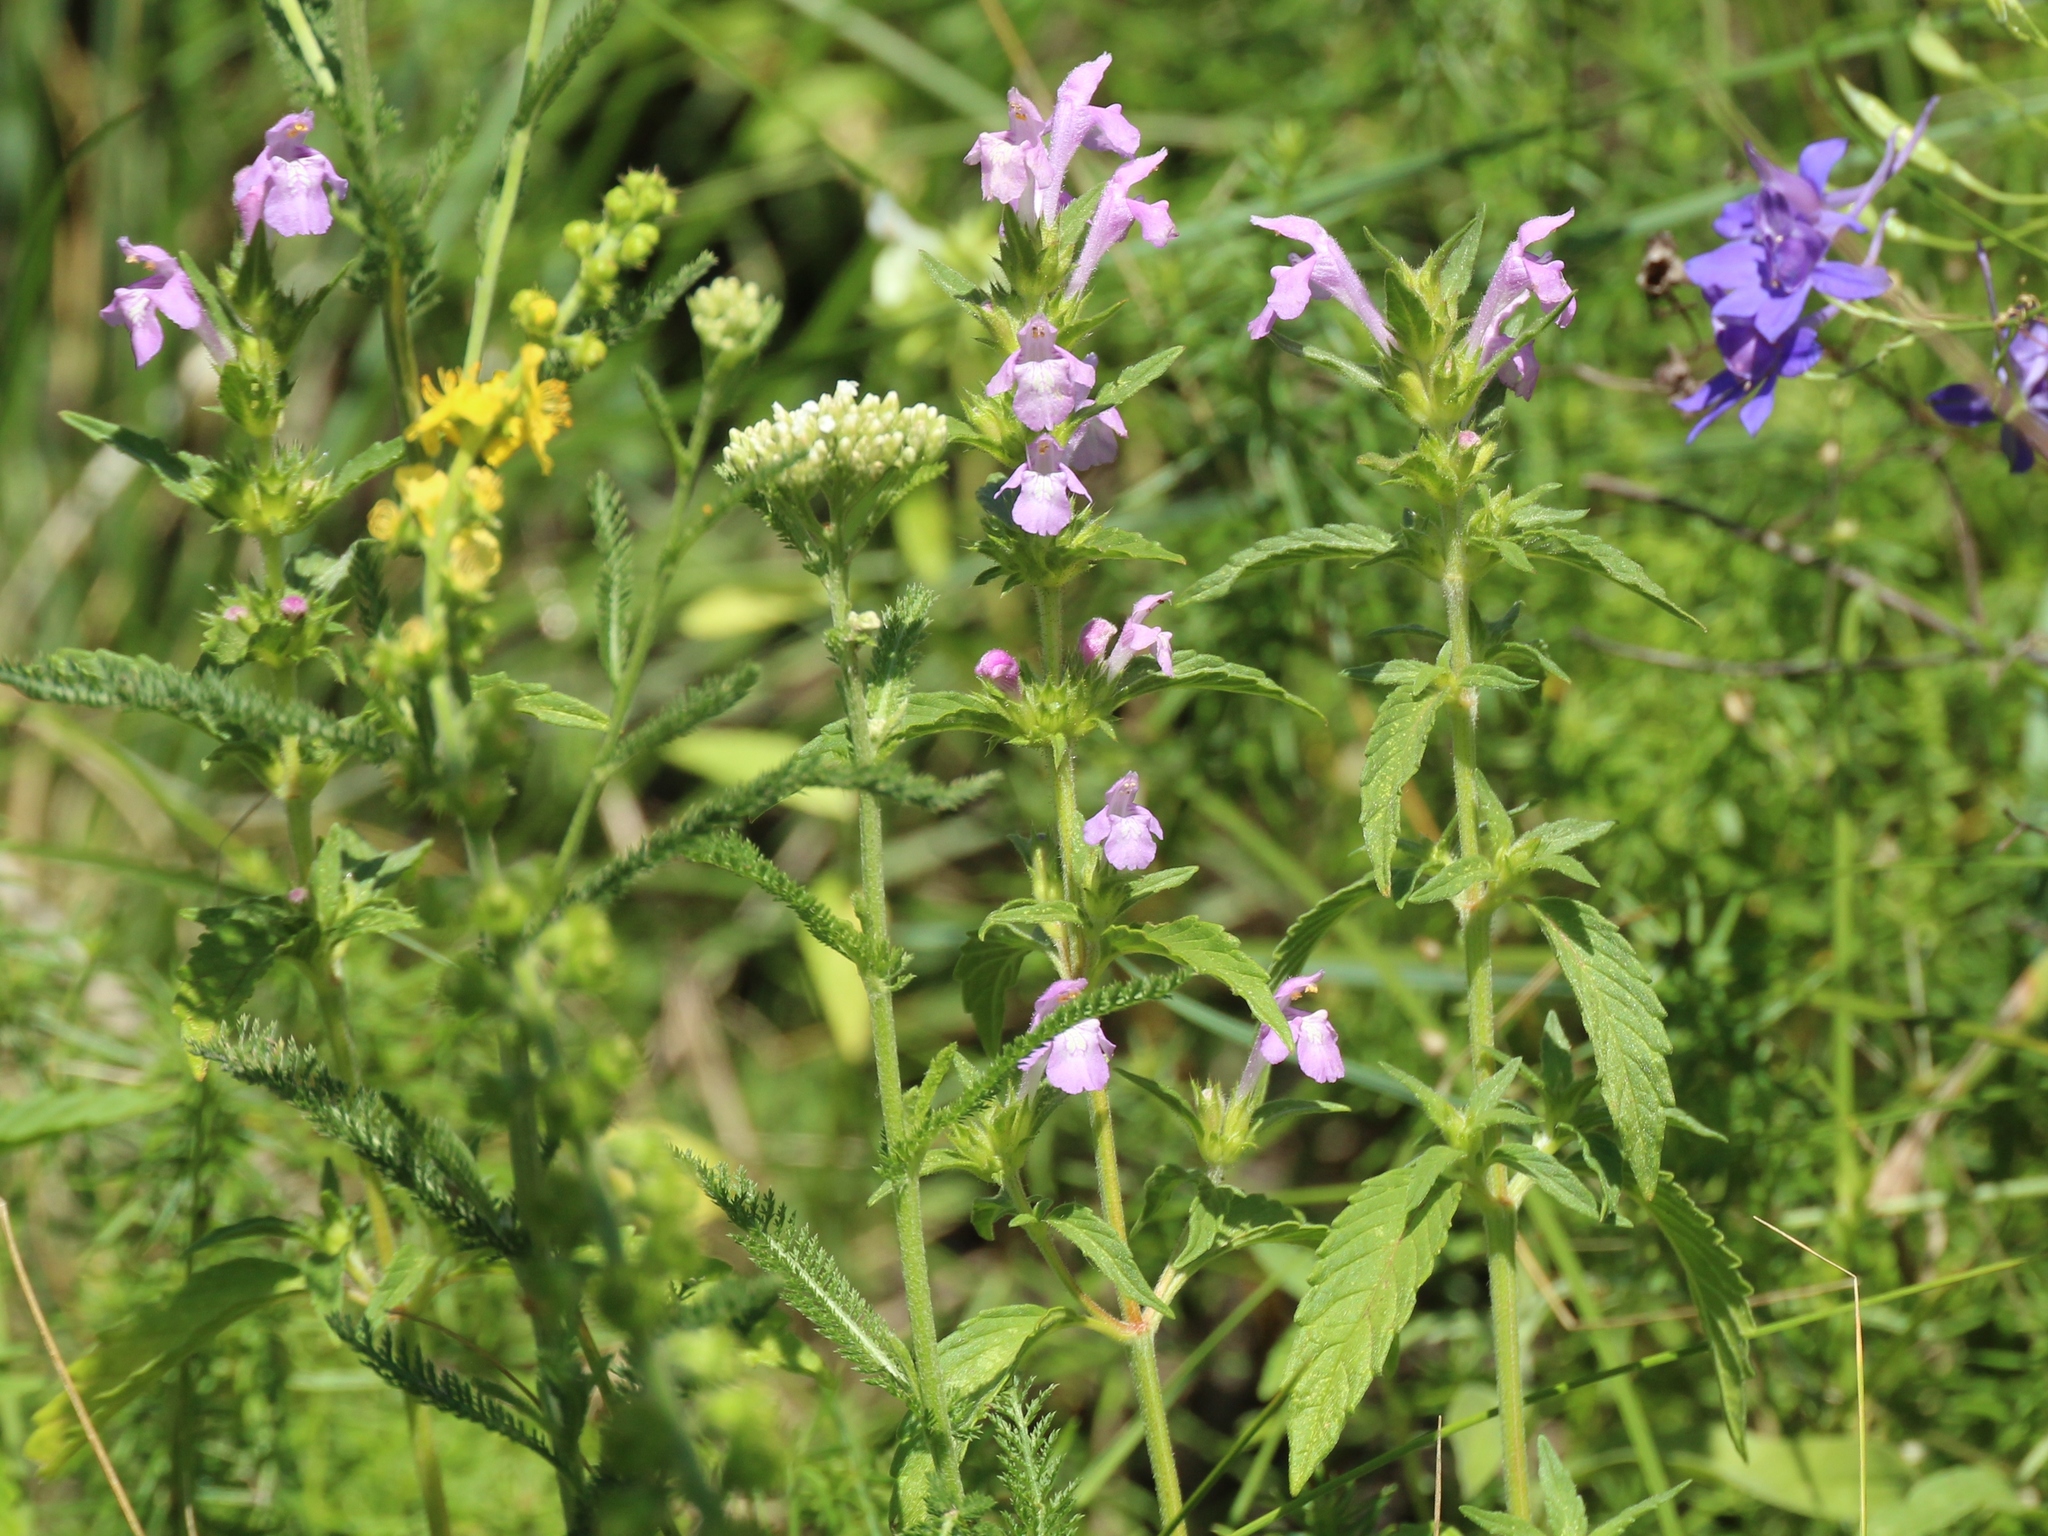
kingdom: Plantae
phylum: Tracheophyta
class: Magnoliopsida
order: Lamiales
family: Lamiaceae
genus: Galeopsis
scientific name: Galeopsis ladanum
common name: Broad-leaved hemp-nettle
